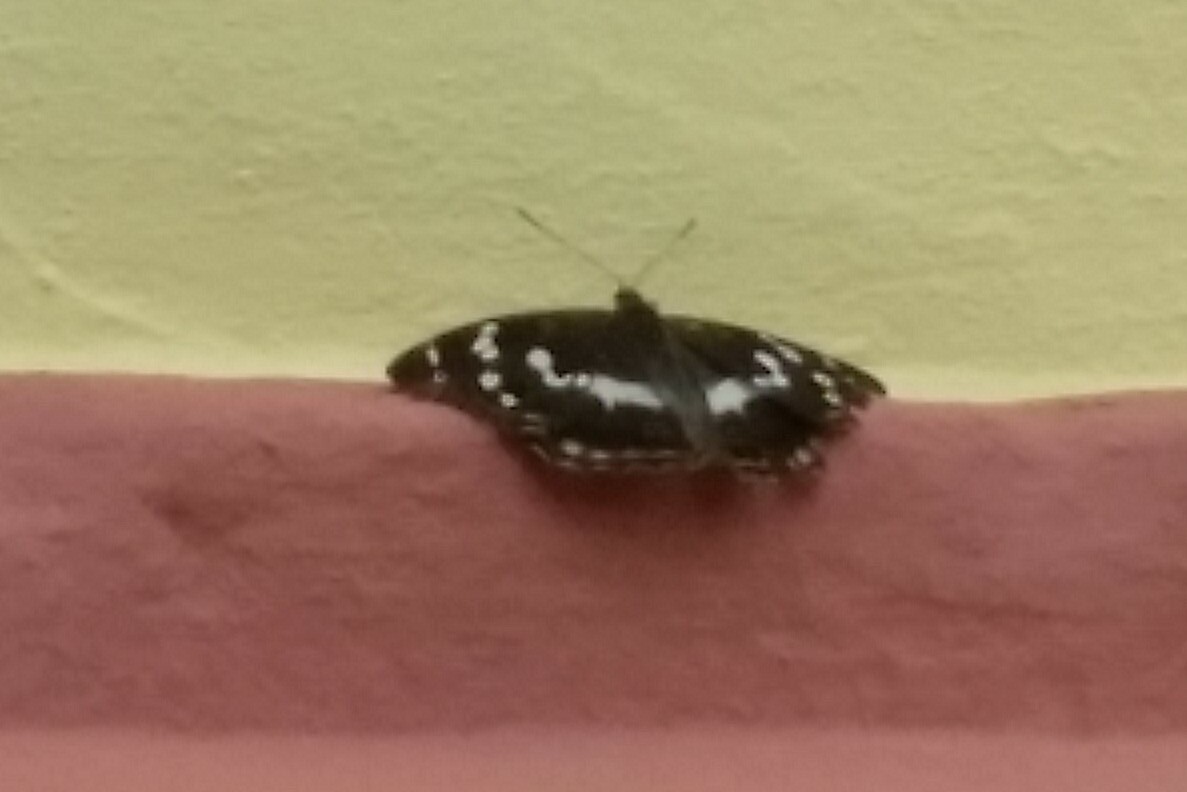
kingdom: Animalia
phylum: Arthropoda
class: Insecta
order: Lepidoptera
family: Nymphalidae
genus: Apatura
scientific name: Apatura iris
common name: Purple emperor
